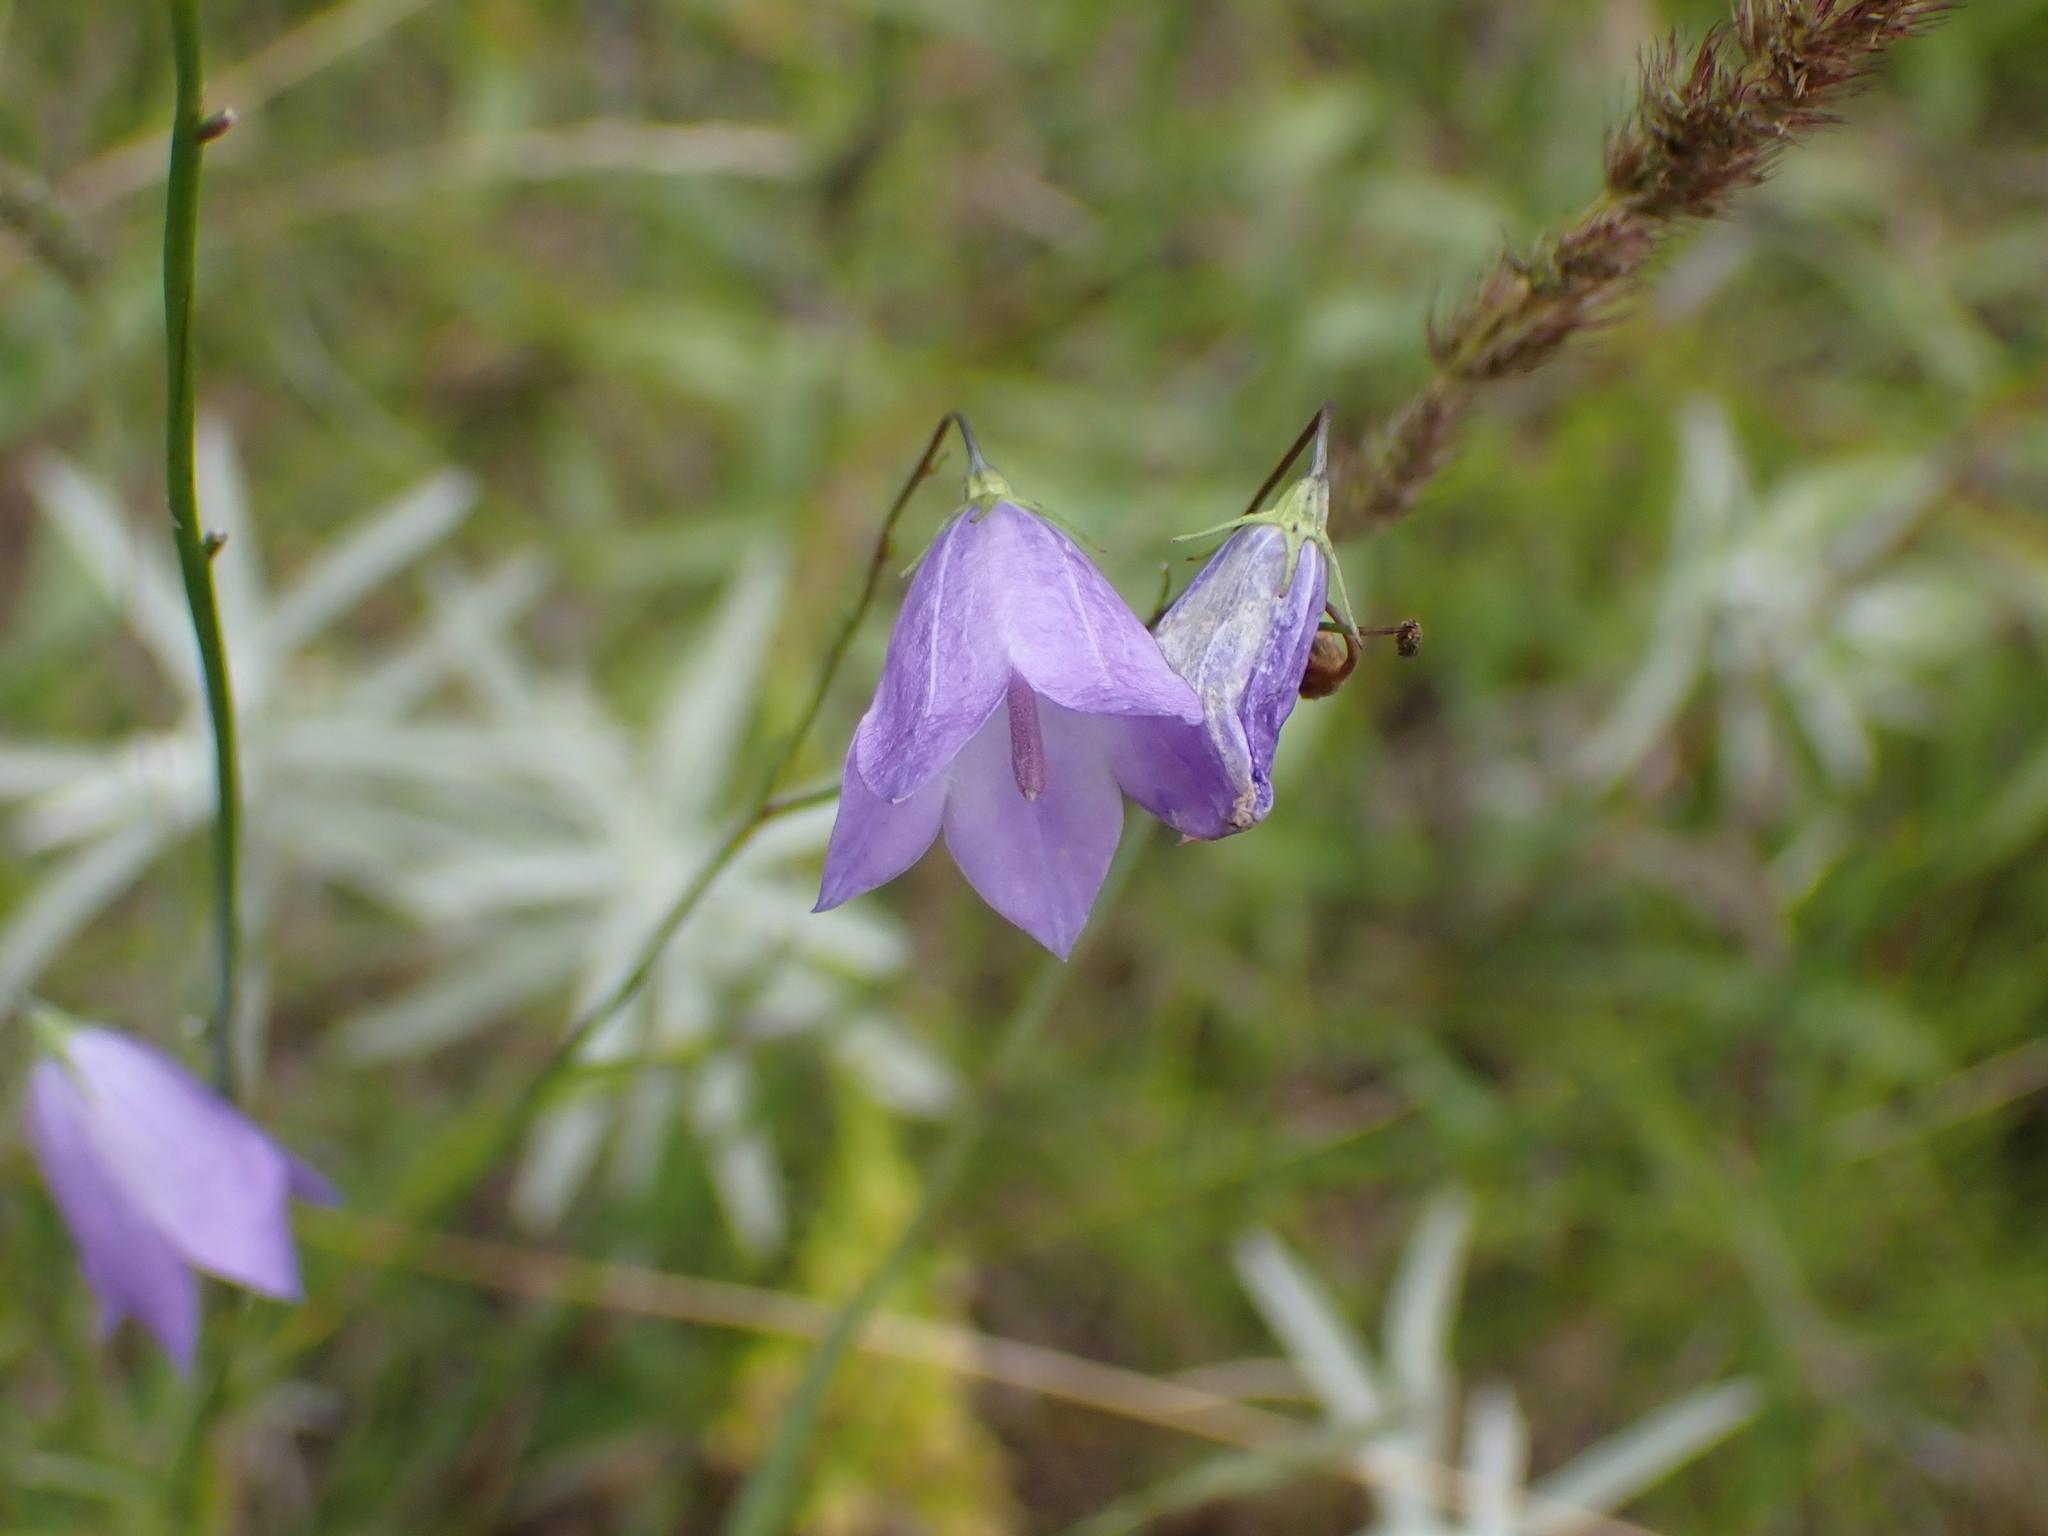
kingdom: Plantae
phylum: Tracheophyta
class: Magnoliopsida
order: Asterales
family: Campanulaceae
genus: Campanula
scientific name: Campanula petiolata
